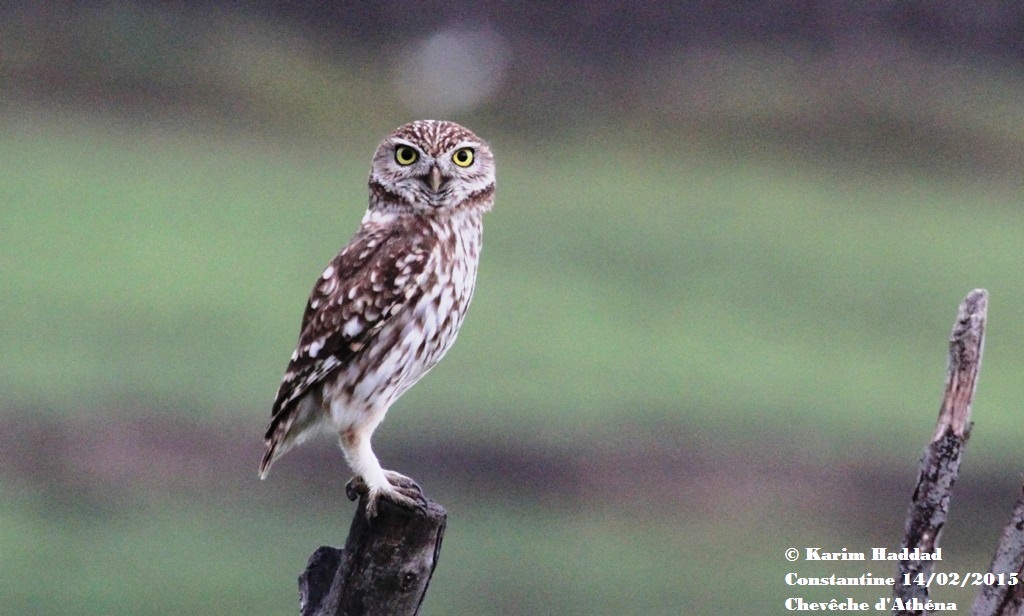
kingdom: Animalia
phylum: Chordata
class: Aves
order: Strigiformes
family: Strigidae
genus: Athene
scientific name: Athene noctua
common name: Little owl
